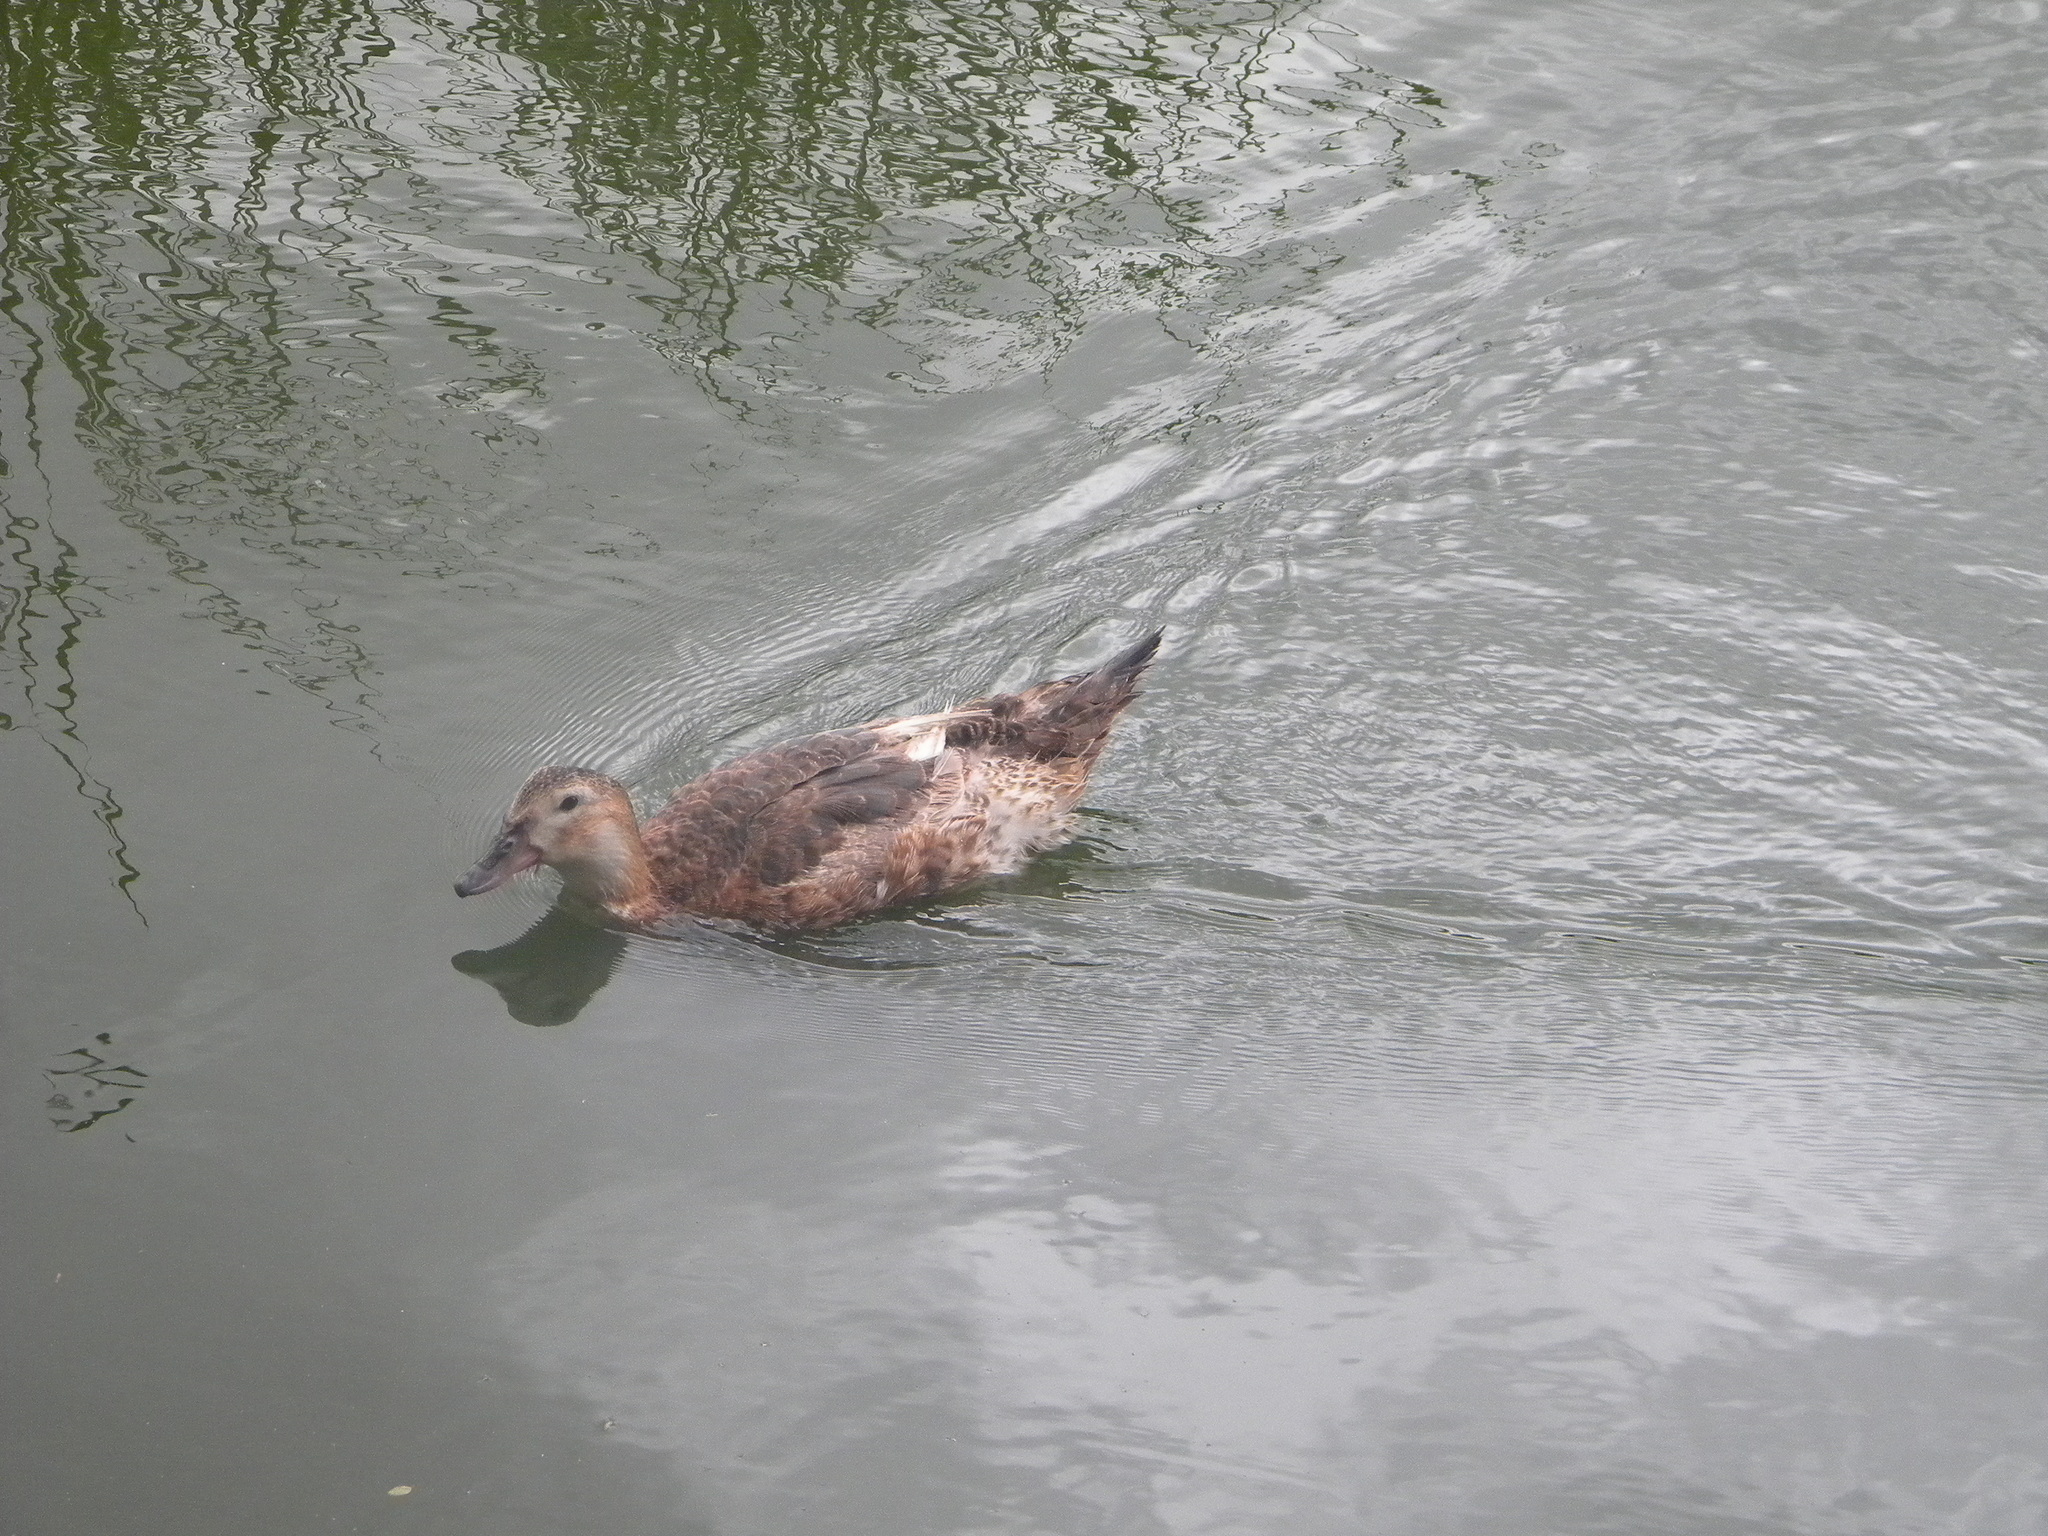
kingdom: Animalia
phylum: Chordata
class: Aves
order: Anseriformes
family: Anatidae
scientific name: Anatidae
